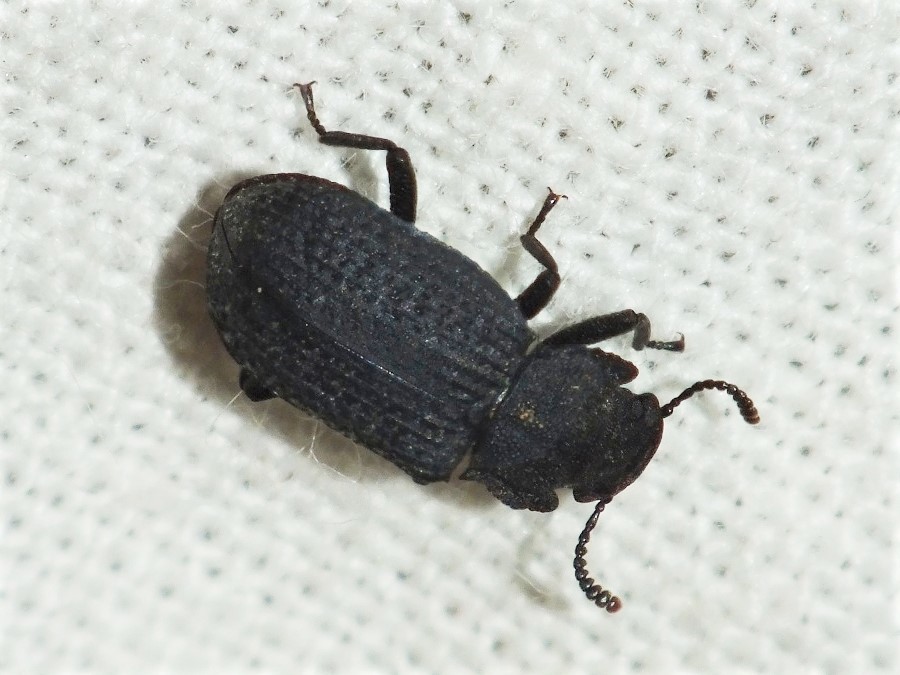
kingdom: Animalia
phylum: Arthropoda
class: Insecta
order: Coleoptera
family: Tenebrionidae
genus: Bolitophagus
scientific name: Bolitophagus reticulatus
